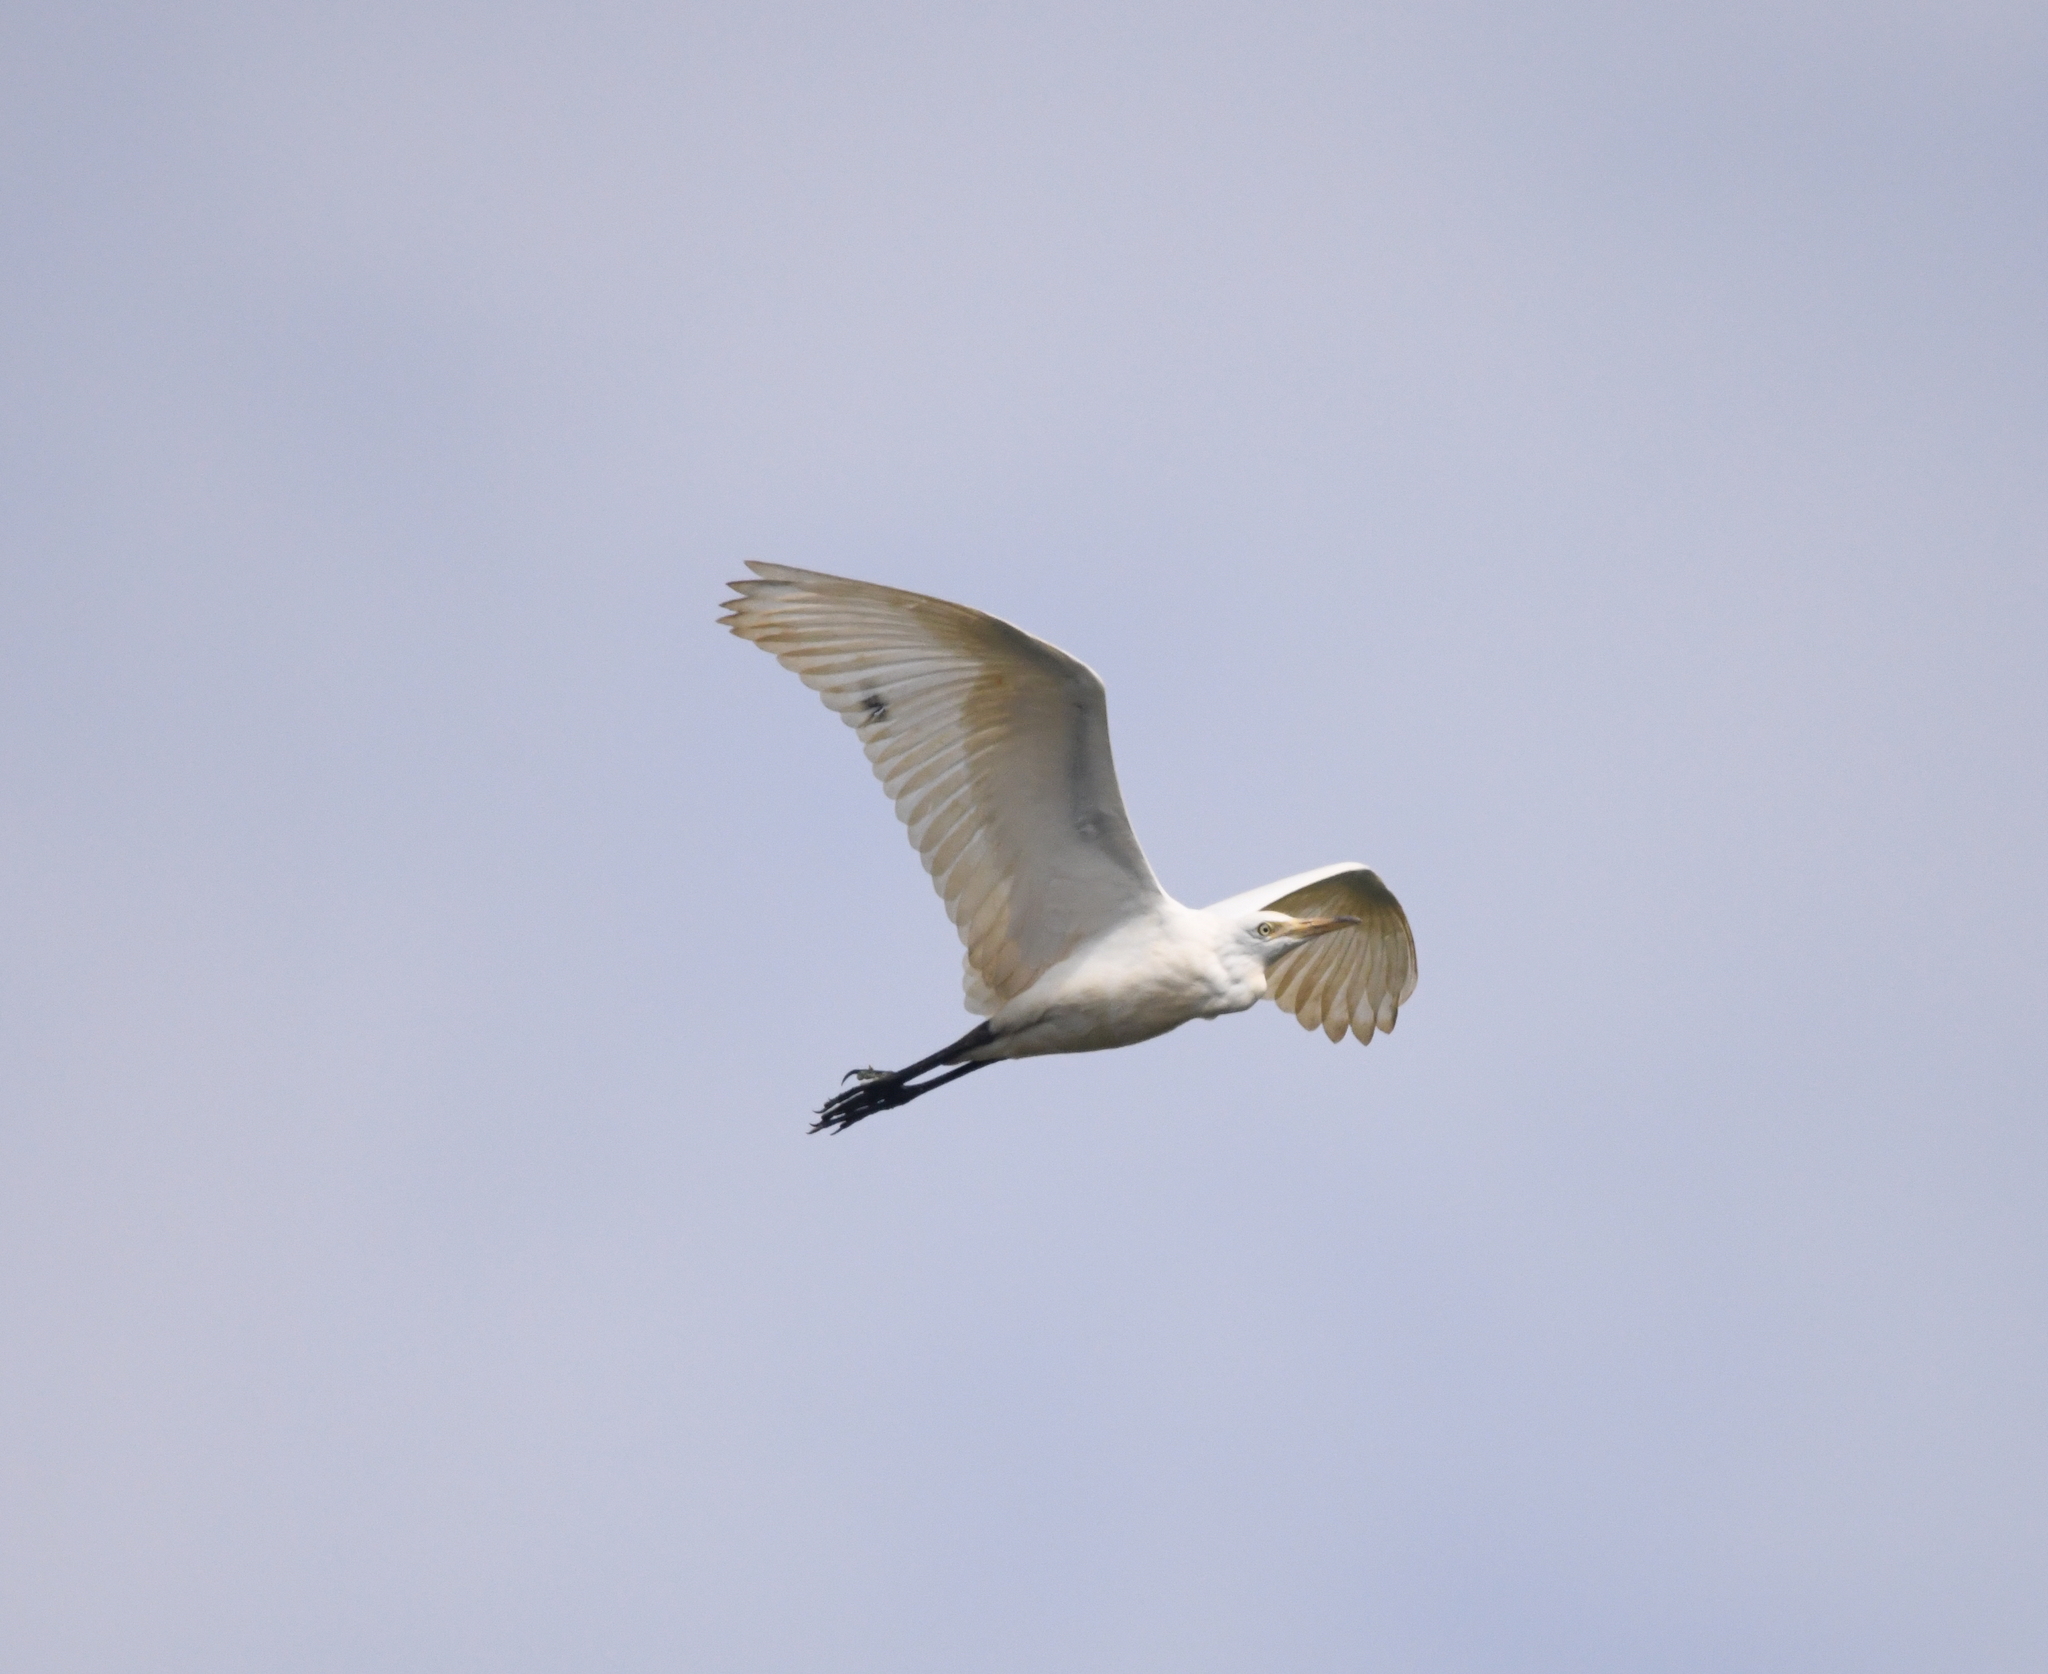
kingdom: Animalia
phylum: Chordata
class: Aves
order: Pelecaniformes
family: Ardeidae
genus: Bubulcus
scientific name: Bubulcus coromandus
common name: Eastern cattle egret
